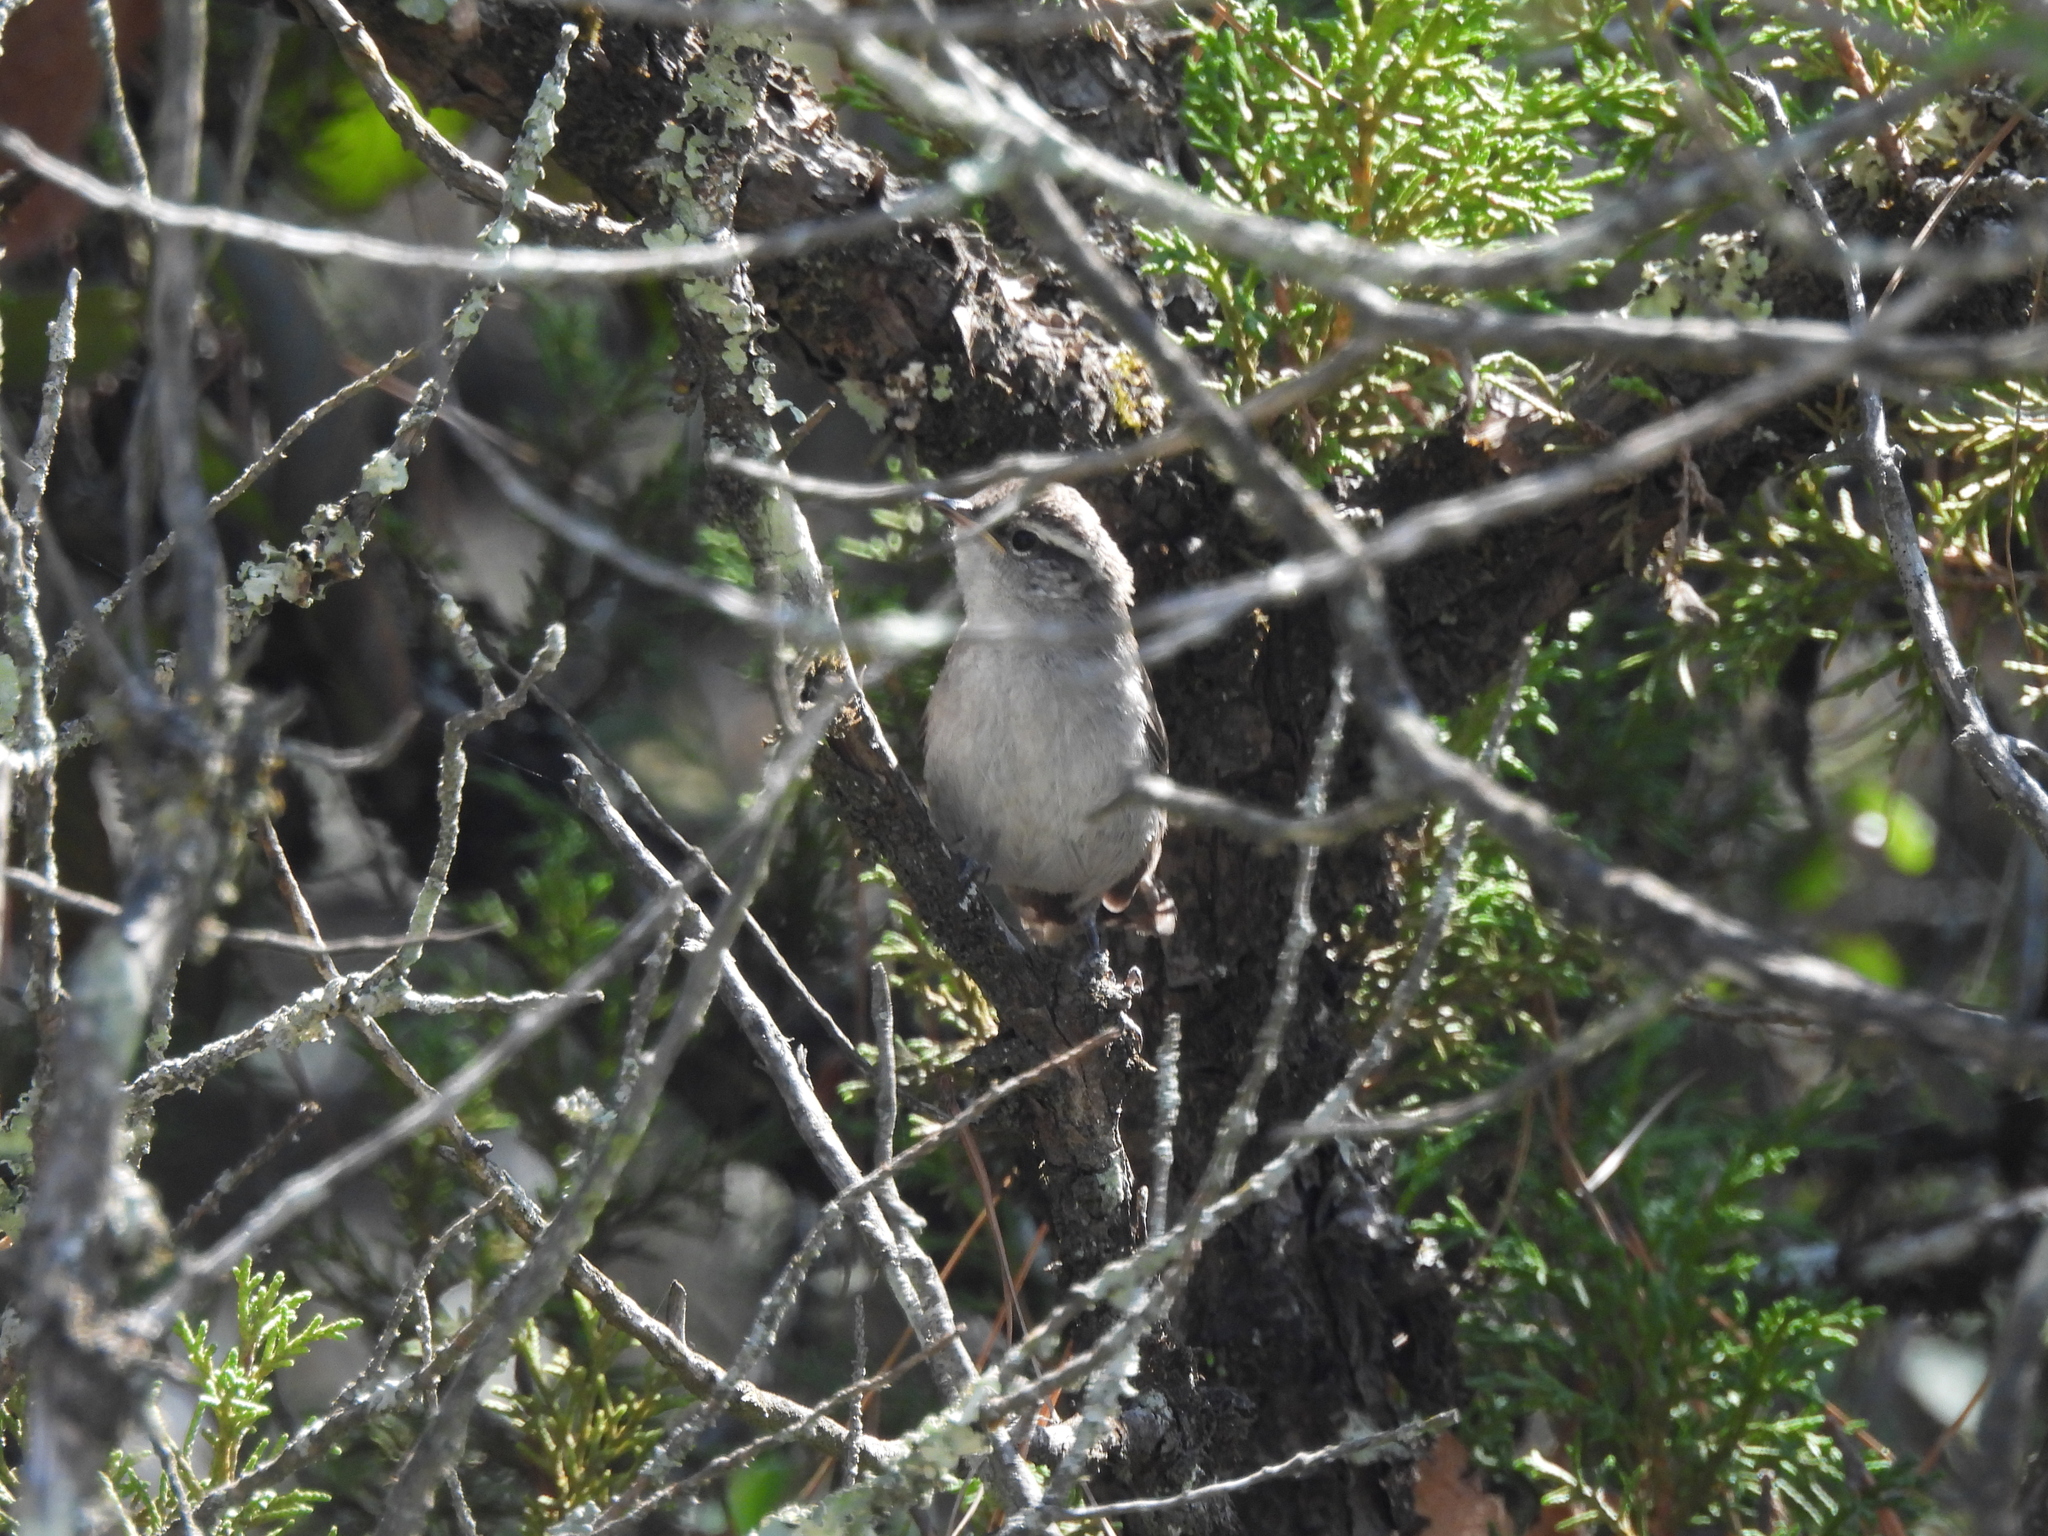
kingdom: Animalia
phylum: Chordata
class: Aves
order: Passeriformes
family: Troglodytidae
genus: Thryomanes
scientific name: Thryomanes bewickii
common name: Bewick's wren
